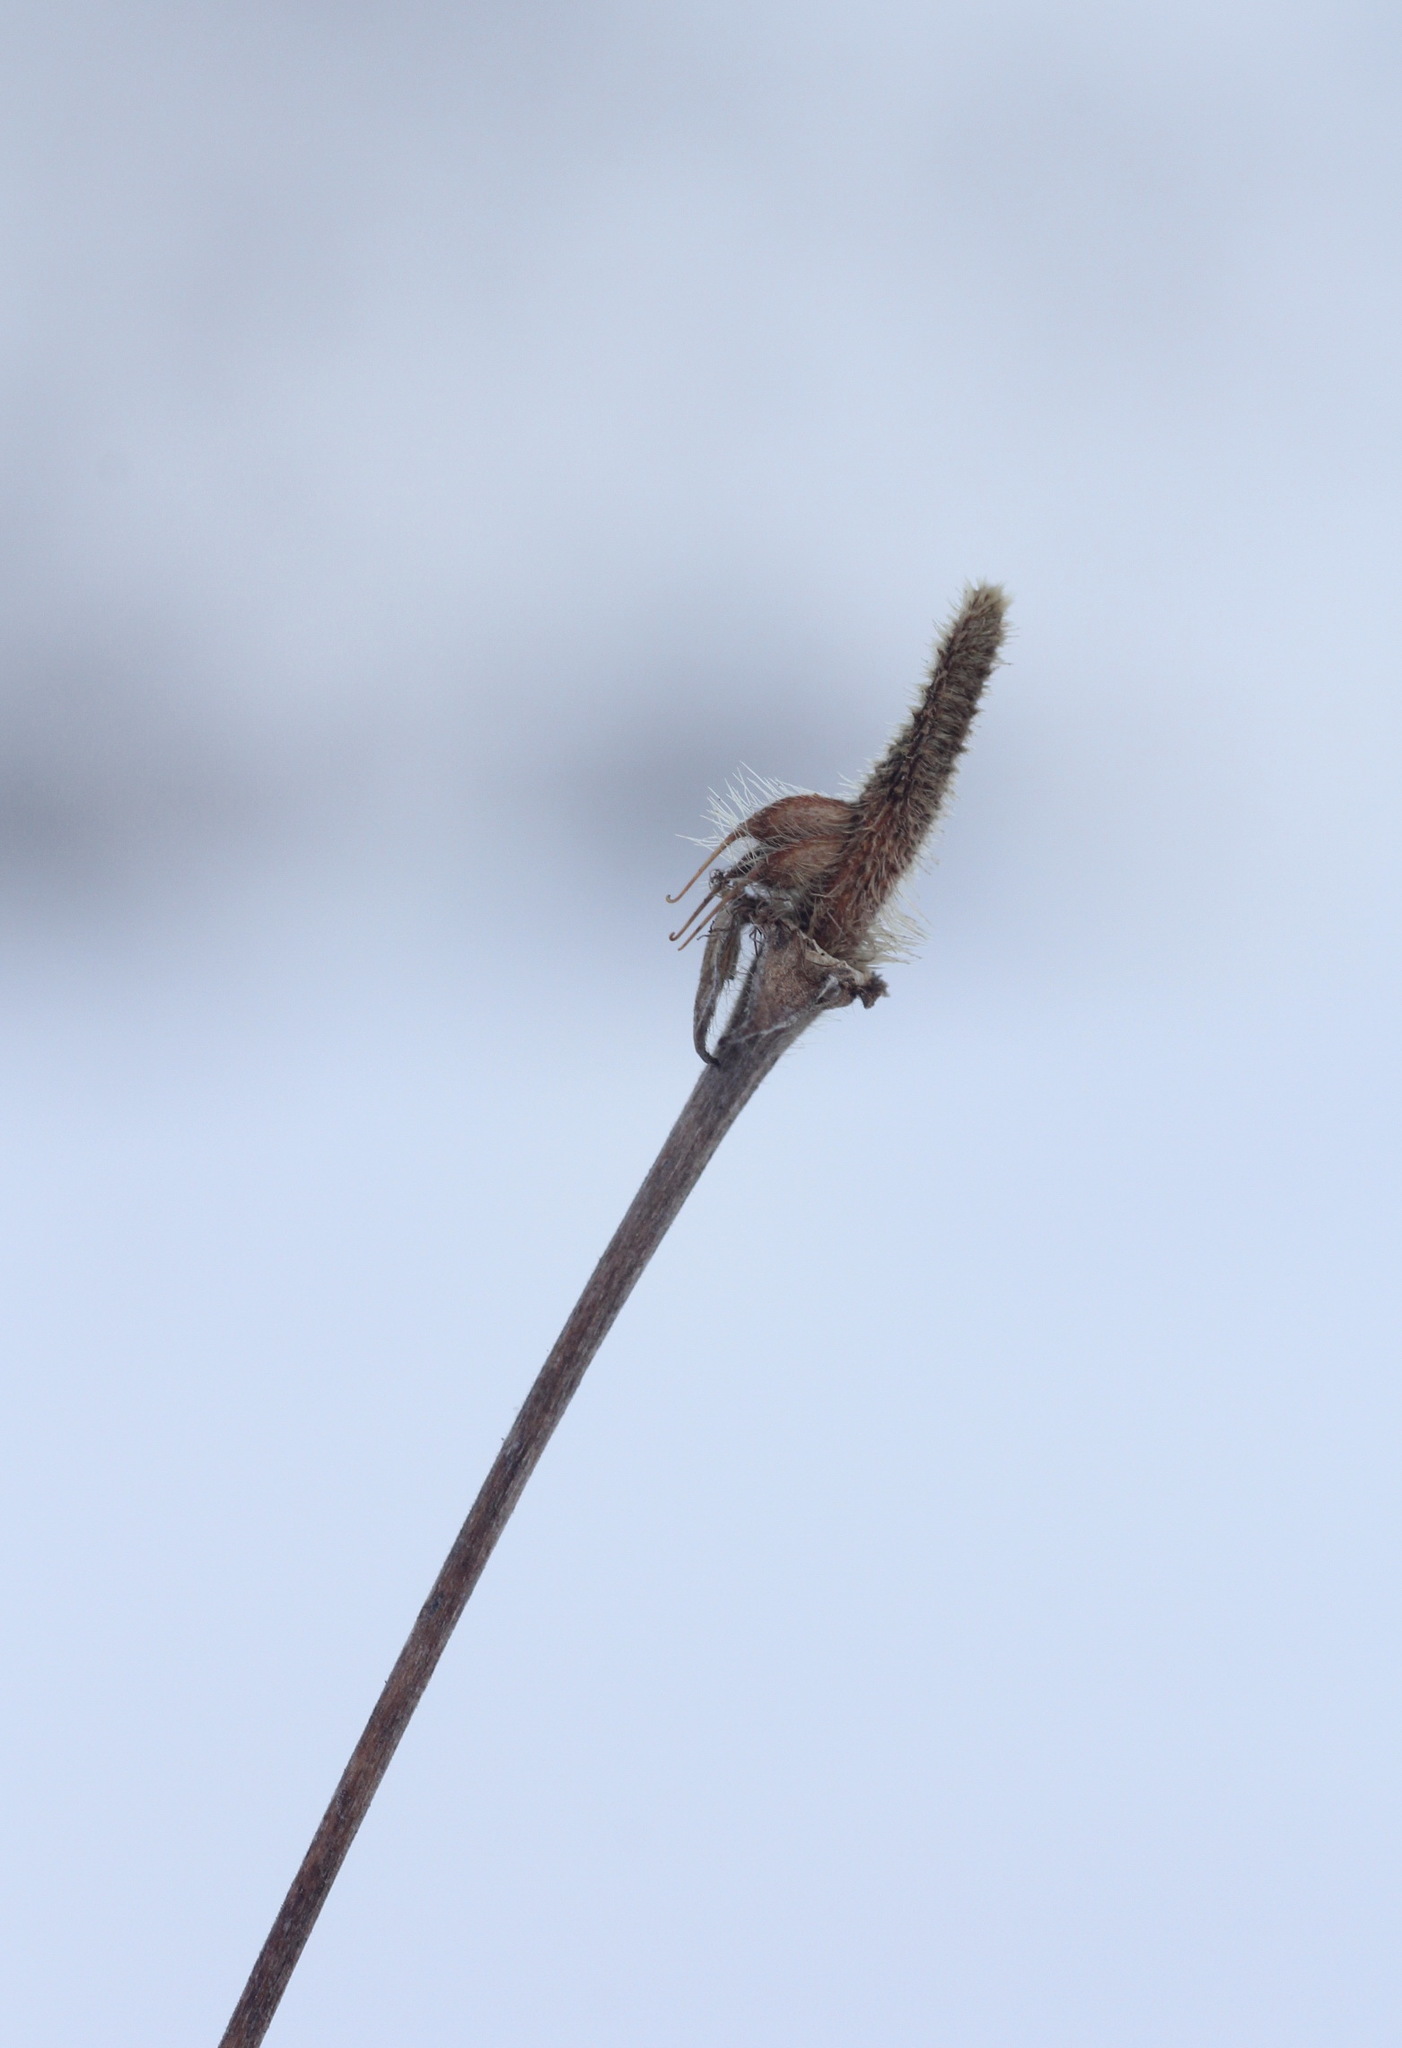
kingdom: Plantae
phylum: Tracheophyta
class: Magnoliopsida
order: Rosales
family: Rosaceae
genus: Geum
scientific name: Geum aleppicum
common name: Yellow avens
